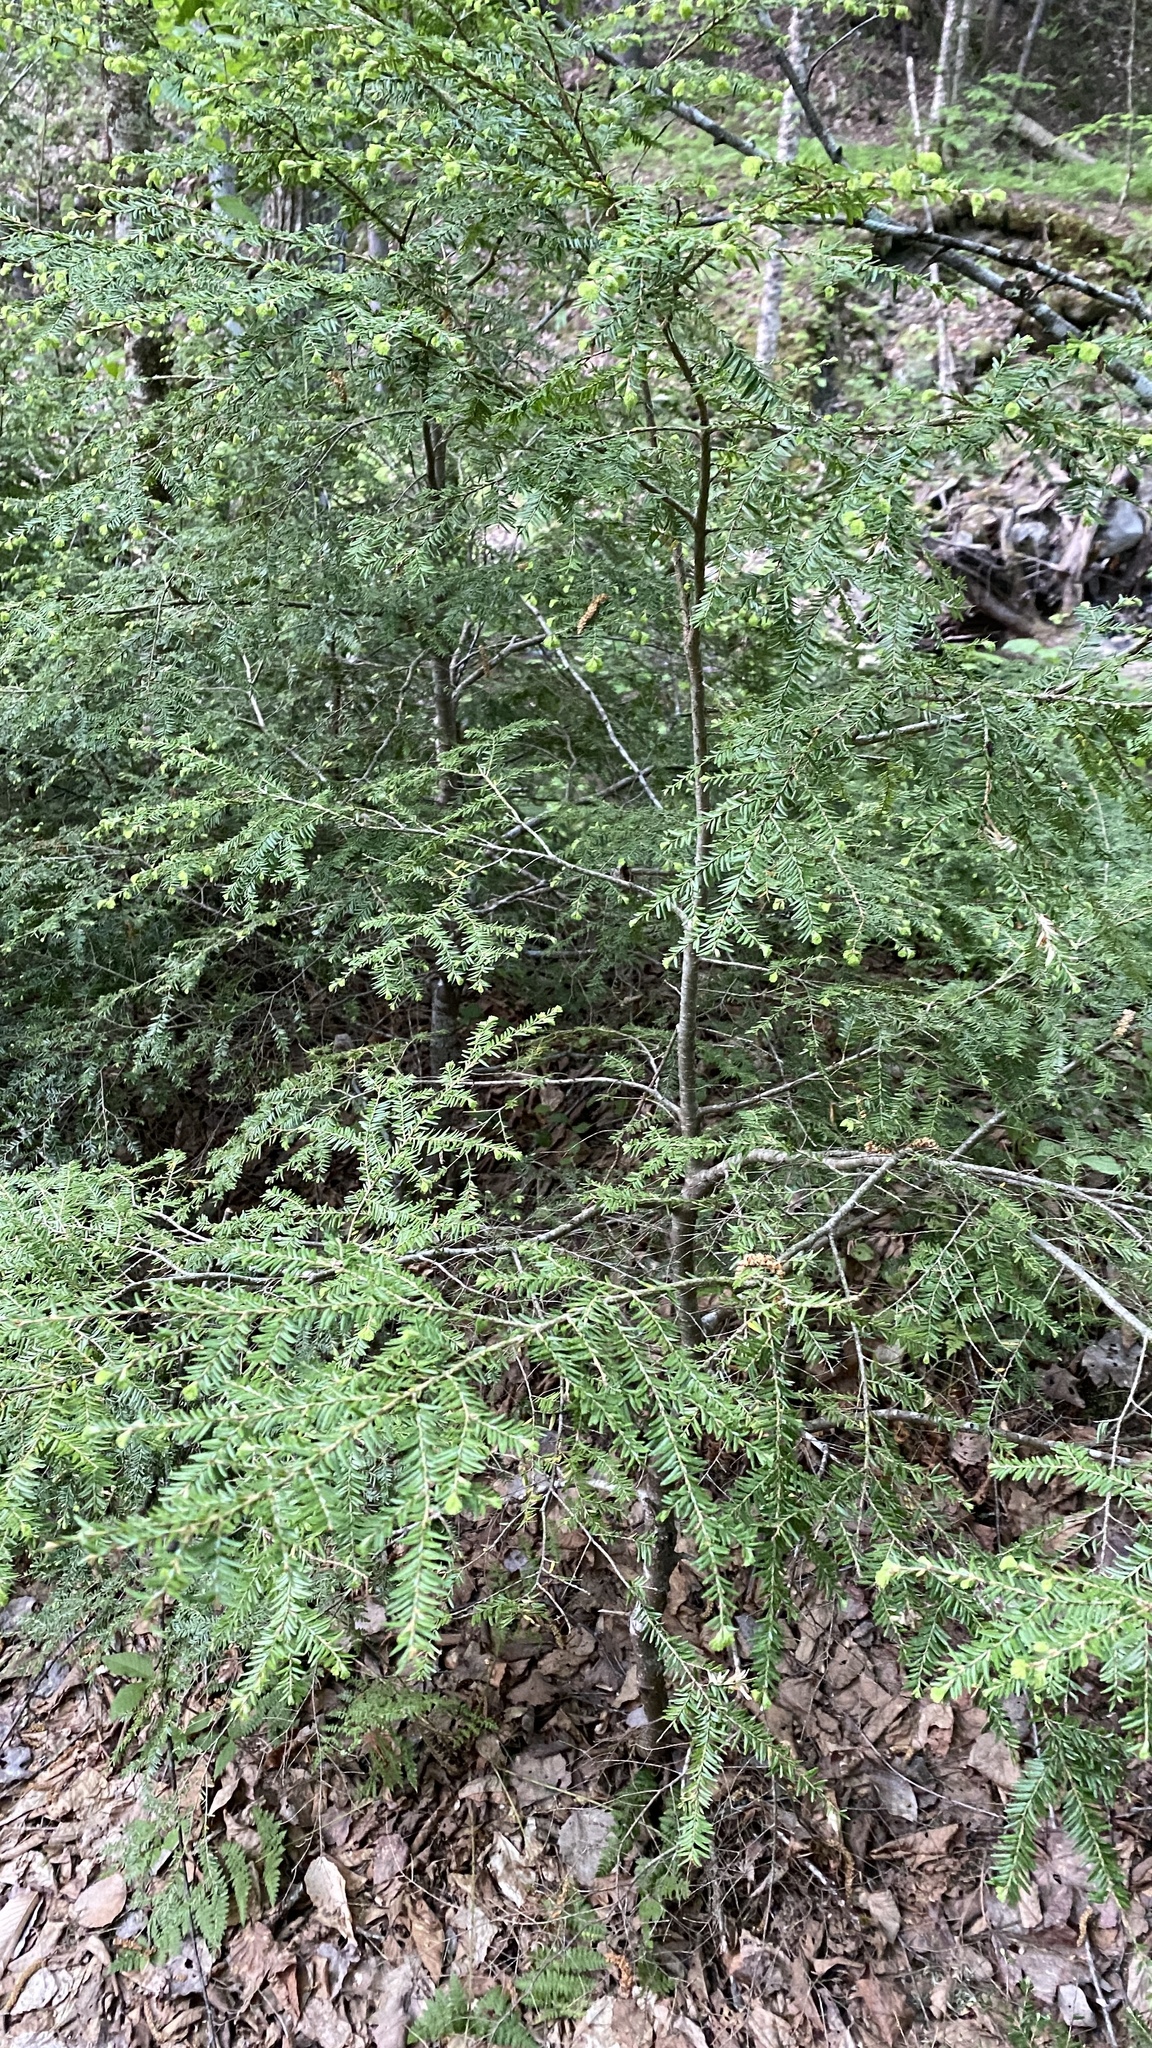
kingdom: Plantae
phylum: Tracheophyta
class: Pinopsida
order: Pinales
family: Pinaceae
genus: Tsuga
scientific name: Tsuga canadensis
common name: Eastern hemlock
